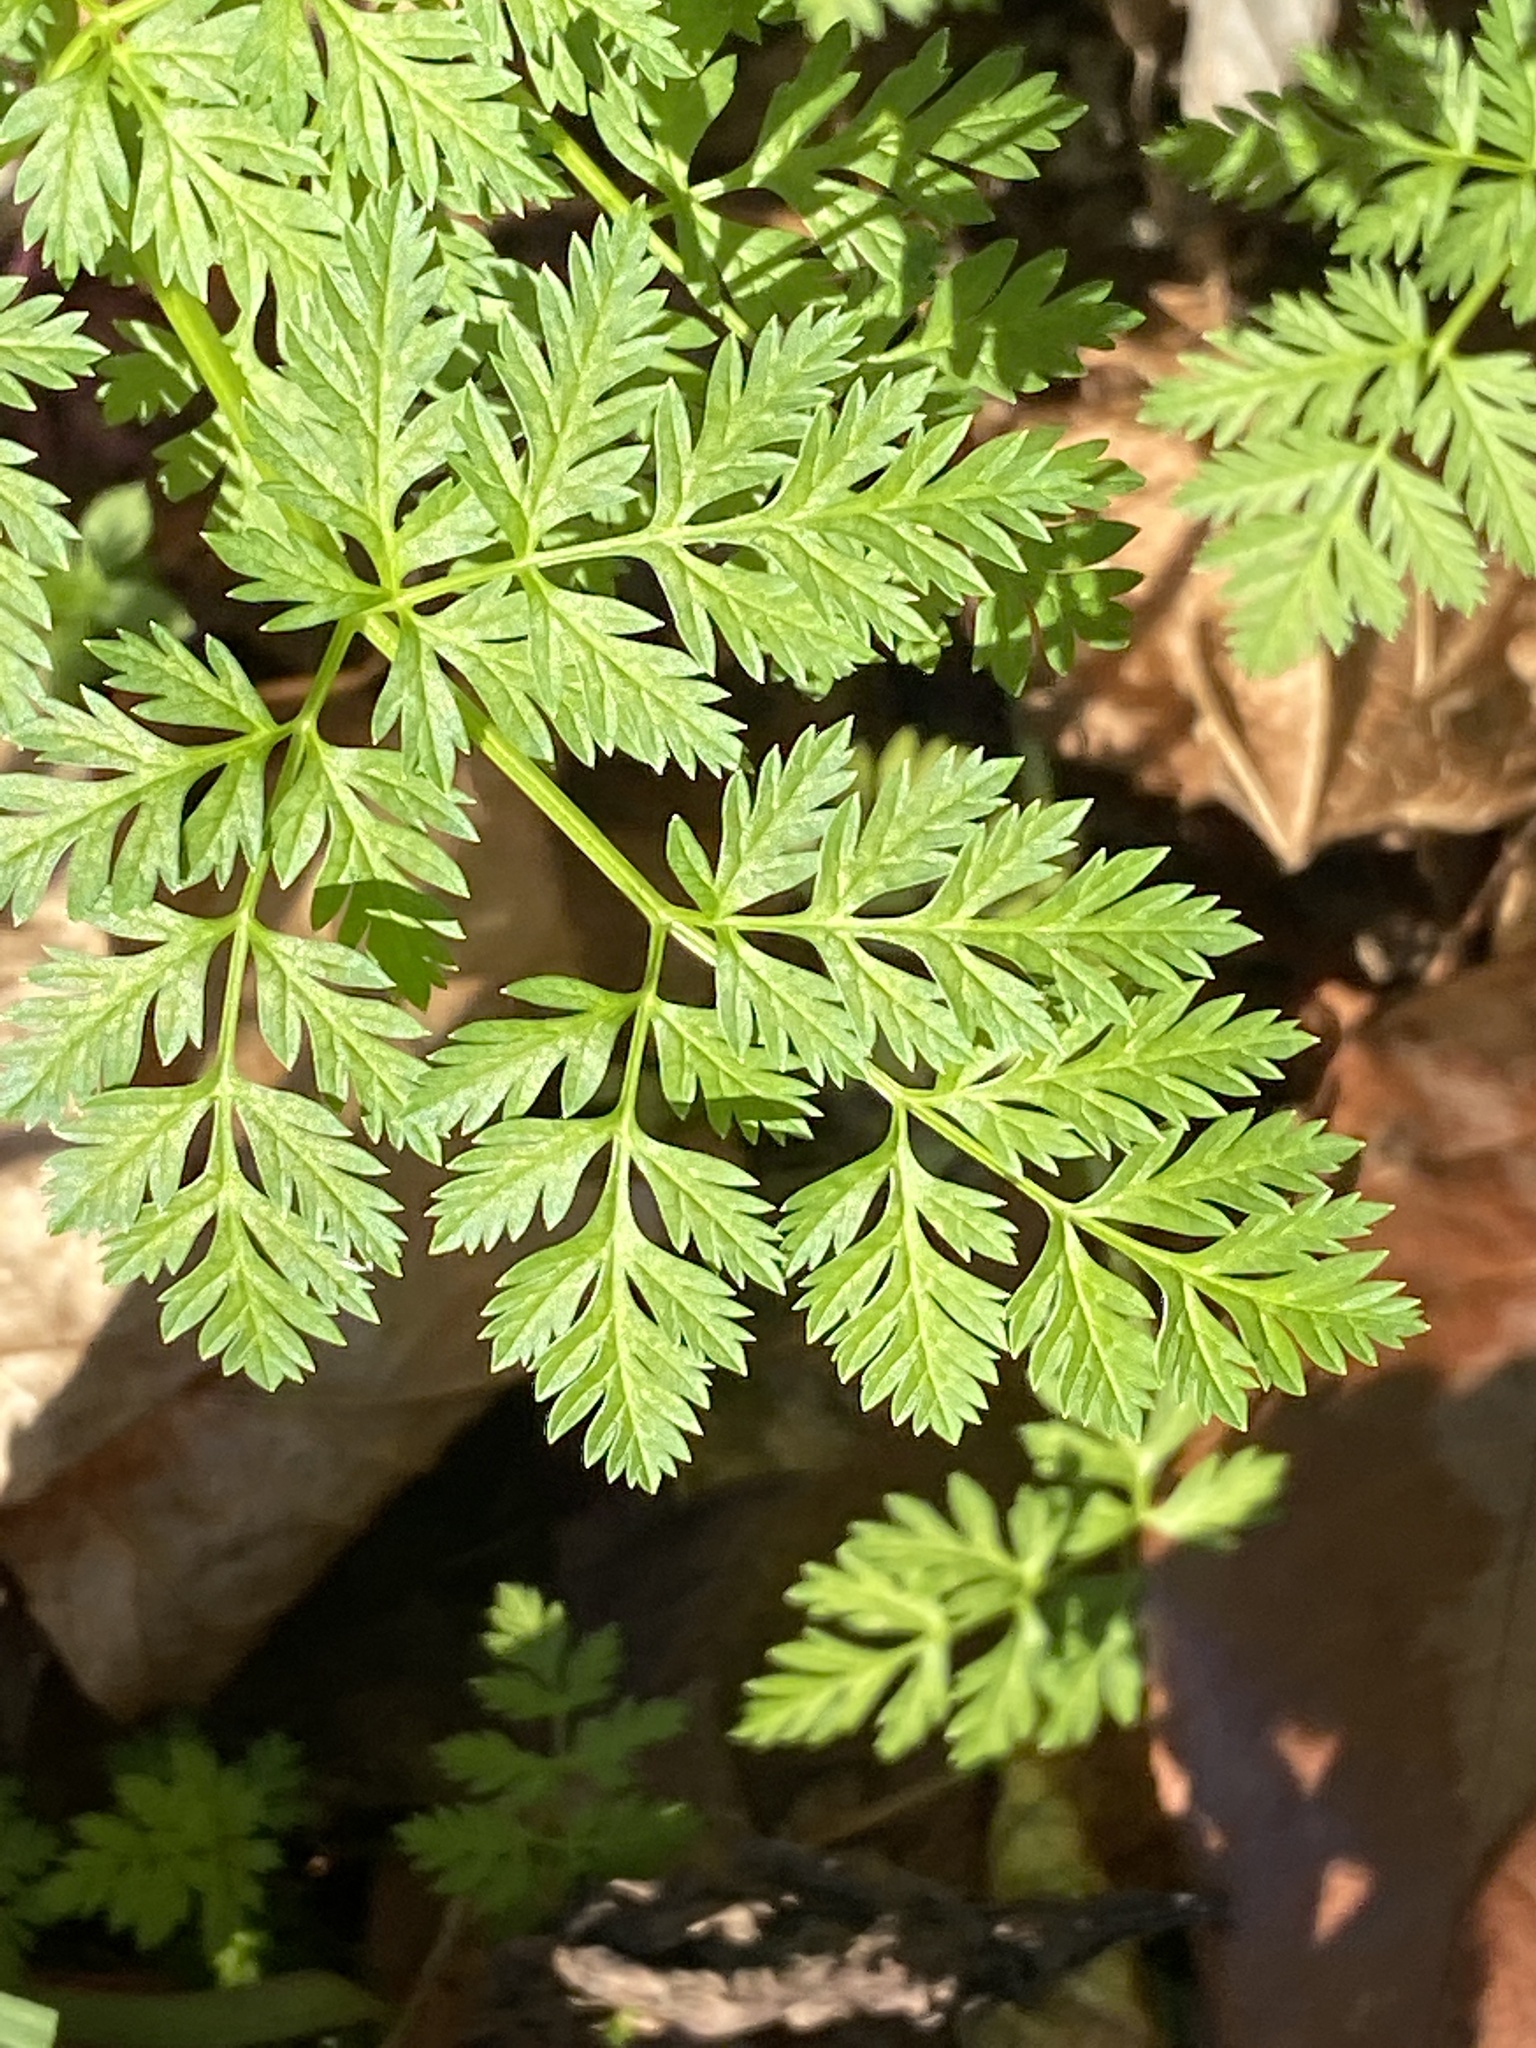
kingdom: Plantae
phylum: Tracheophyta
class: Magnoliopsida
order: Apiales
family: Apiaceae
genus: Conium
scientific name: Conium maculatum
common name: Hemlock
